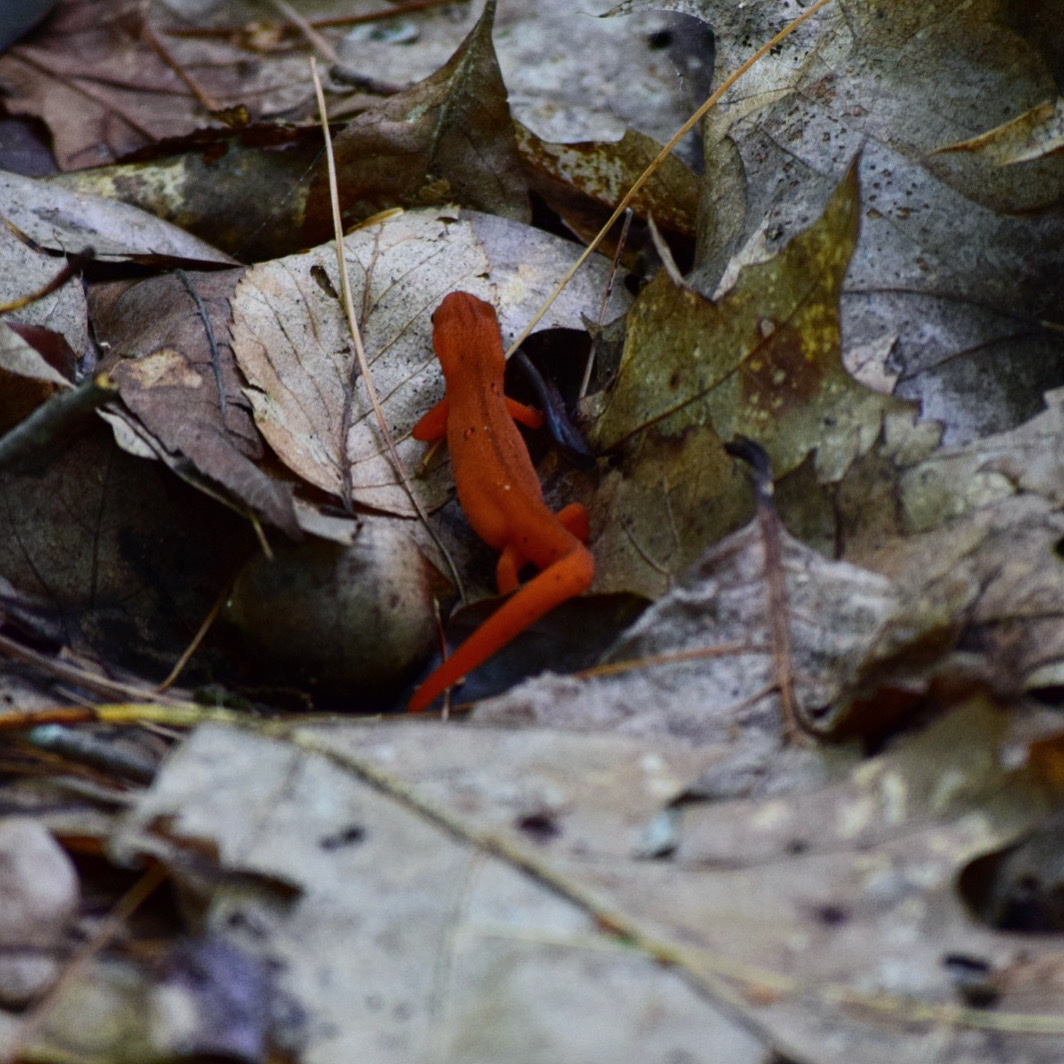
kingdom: Animalia
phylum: Chordata
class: Amphibia
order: Caudata
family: Salamandridae
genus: Notophthalmus
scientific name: Notophthalmus viridescens
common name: Eastern newt
